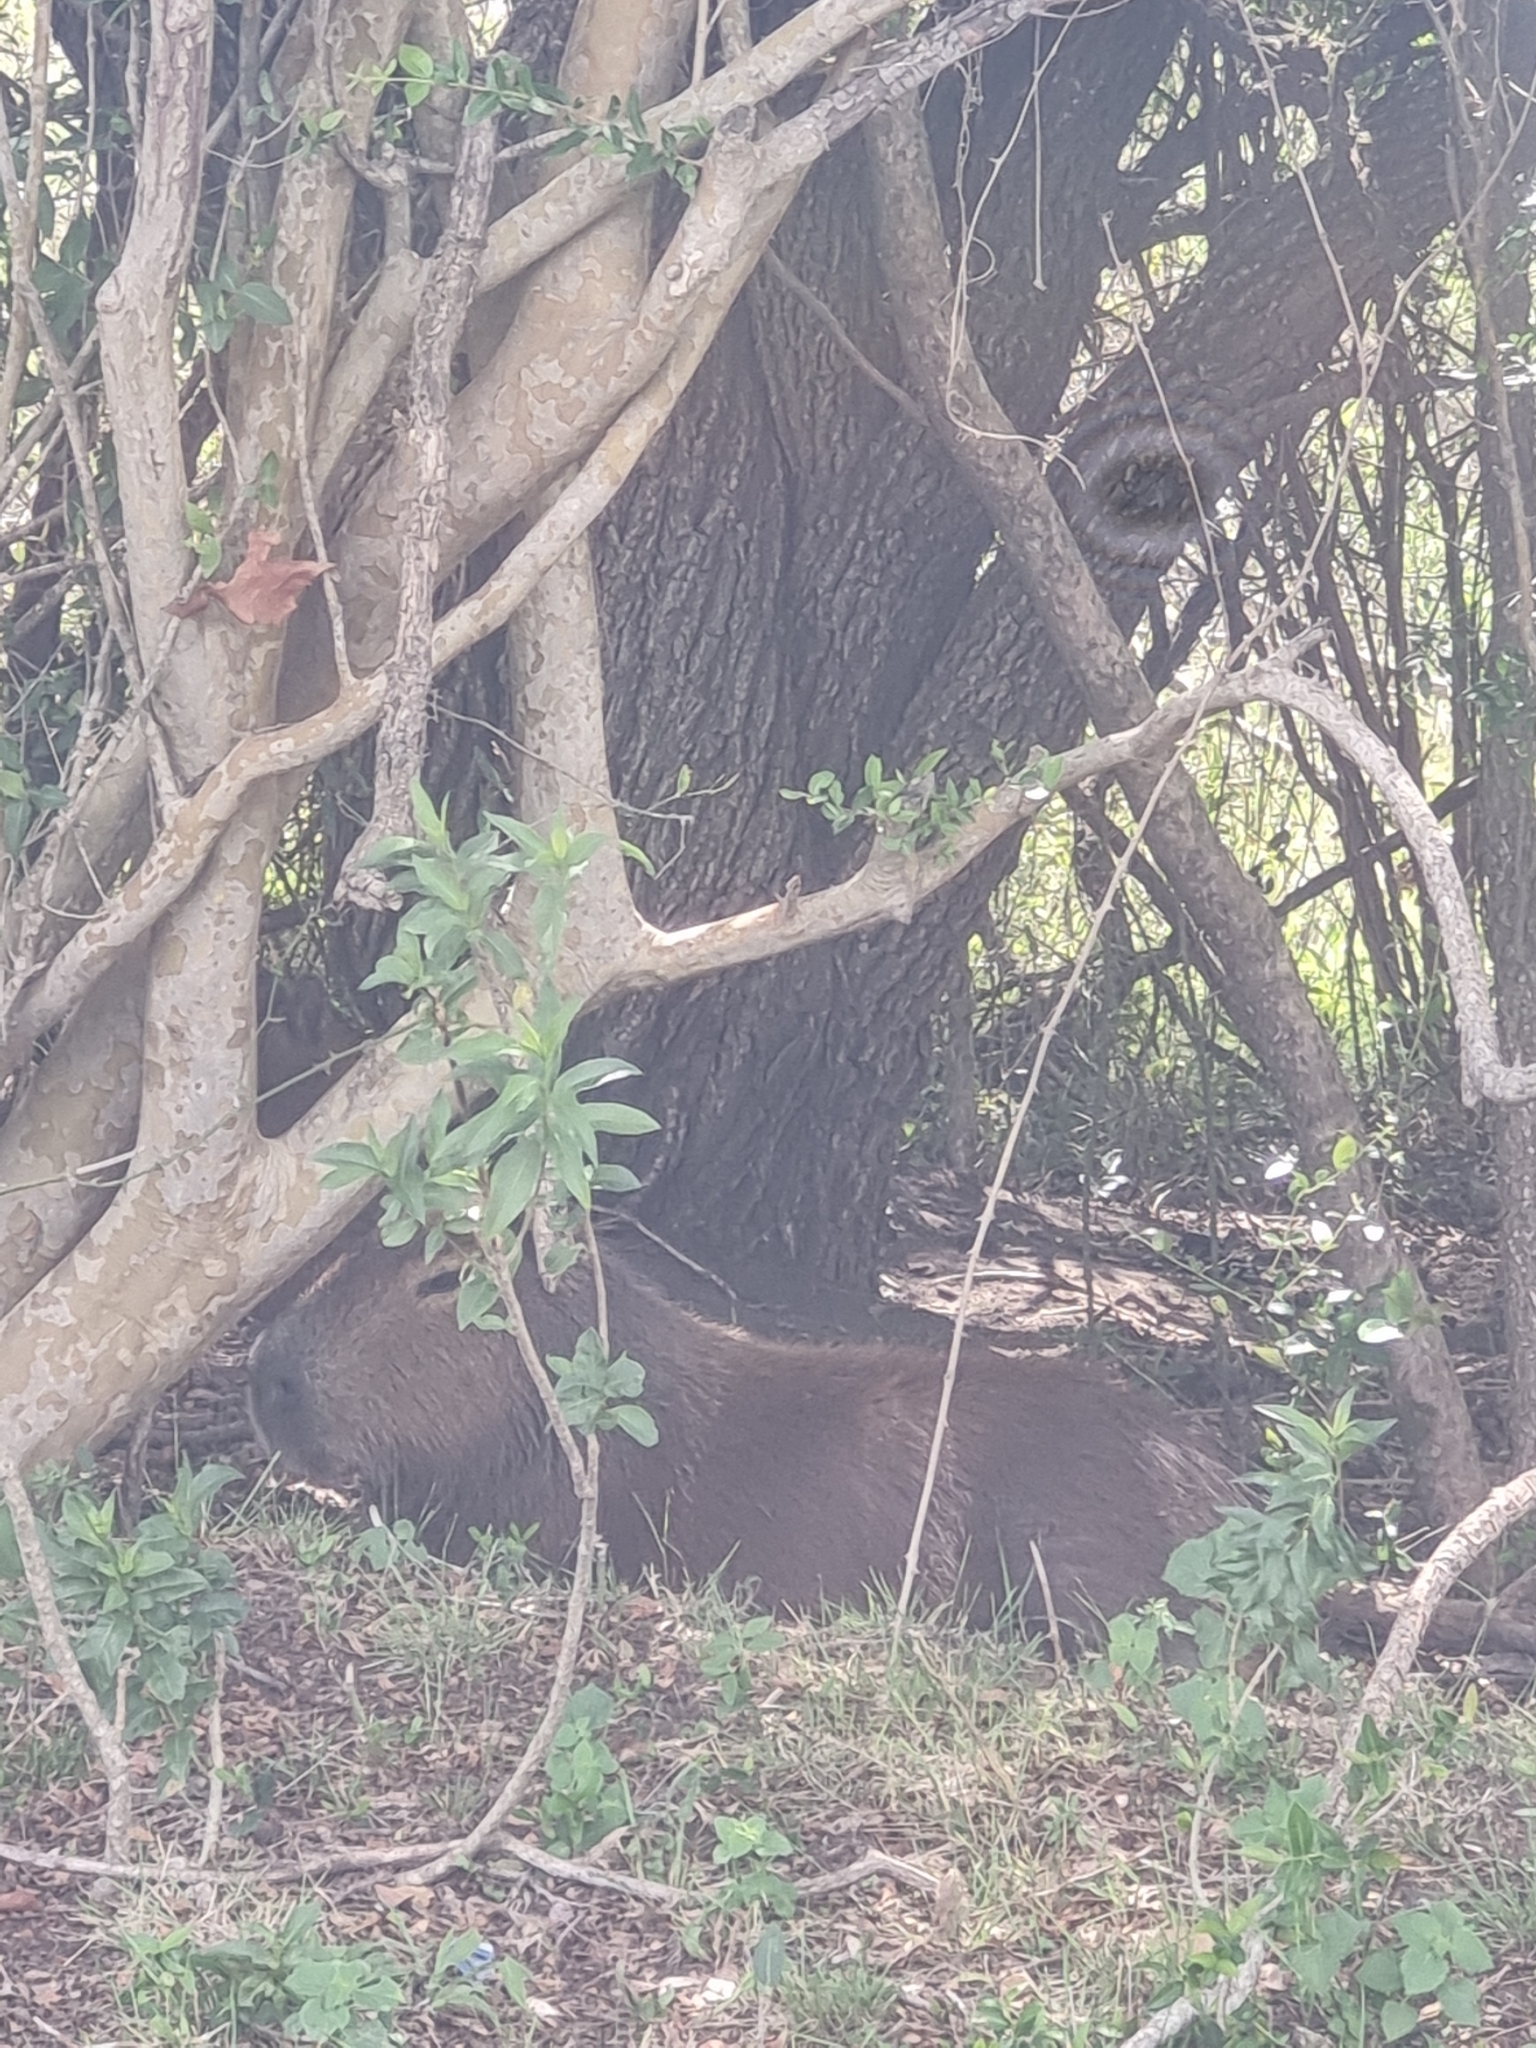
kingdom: Animalia
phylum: Chordata
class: Mammalia
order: Rodentia
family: Caviidae
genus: Hydrochoerus
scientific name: Hydrochoerus hydrochaeris
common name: Capybara
